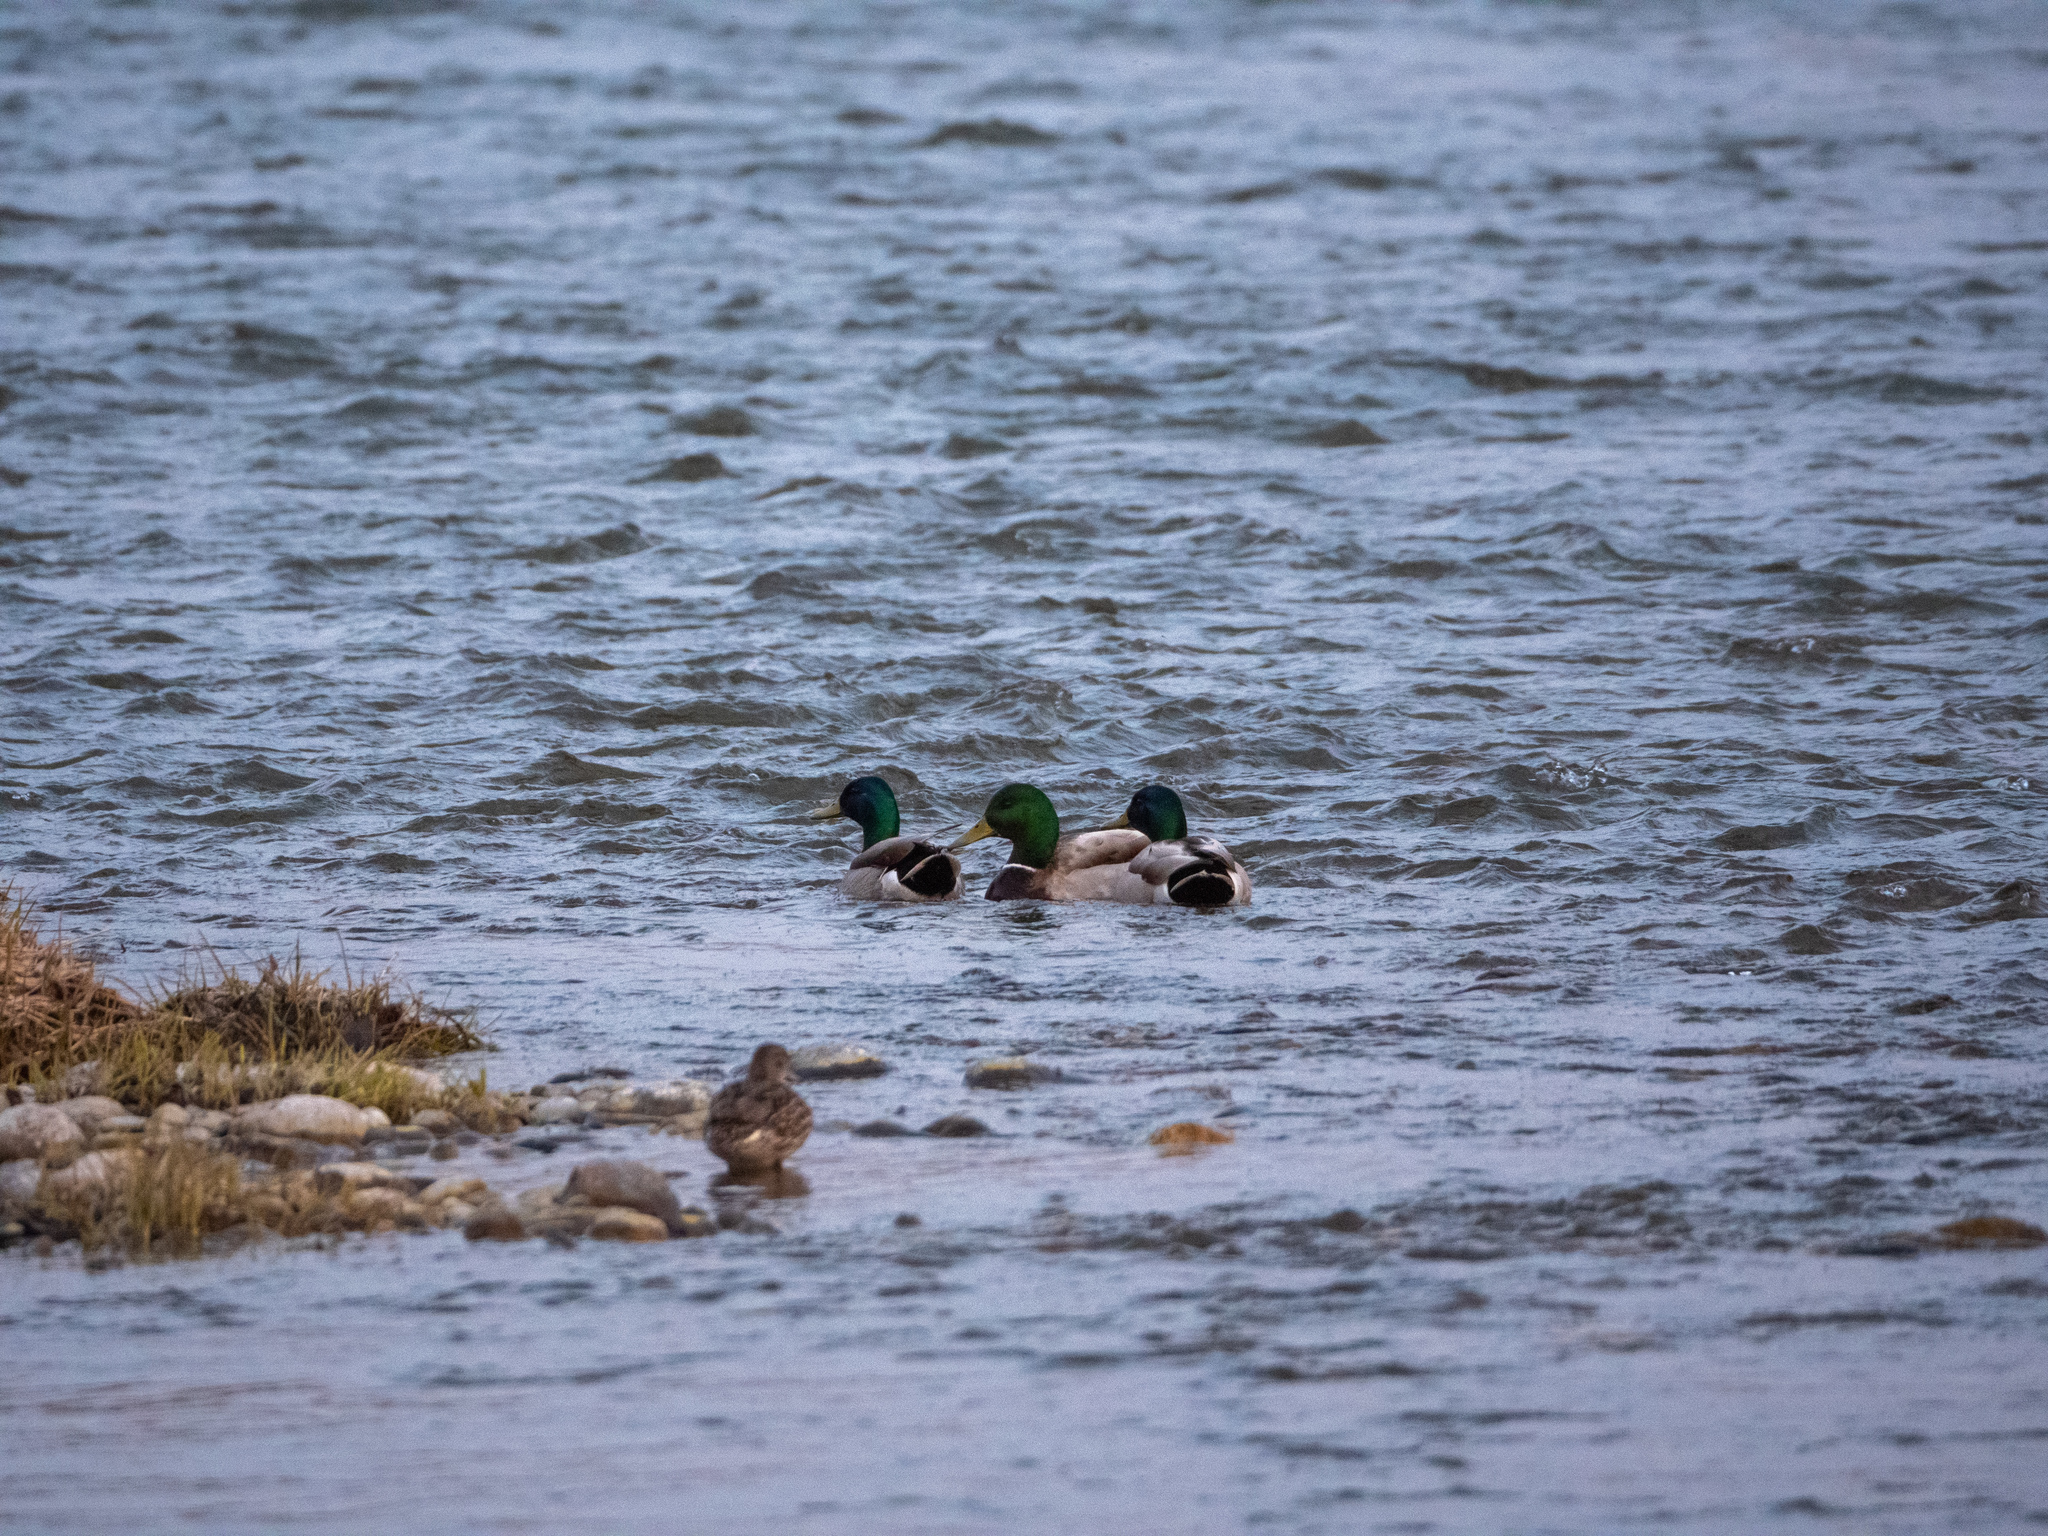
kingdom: Animalia
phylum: Chordata
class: Aves
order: Anseriformes
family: Anatidae
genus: Anas
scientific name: Anas platyrhynchos
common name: Mallard
